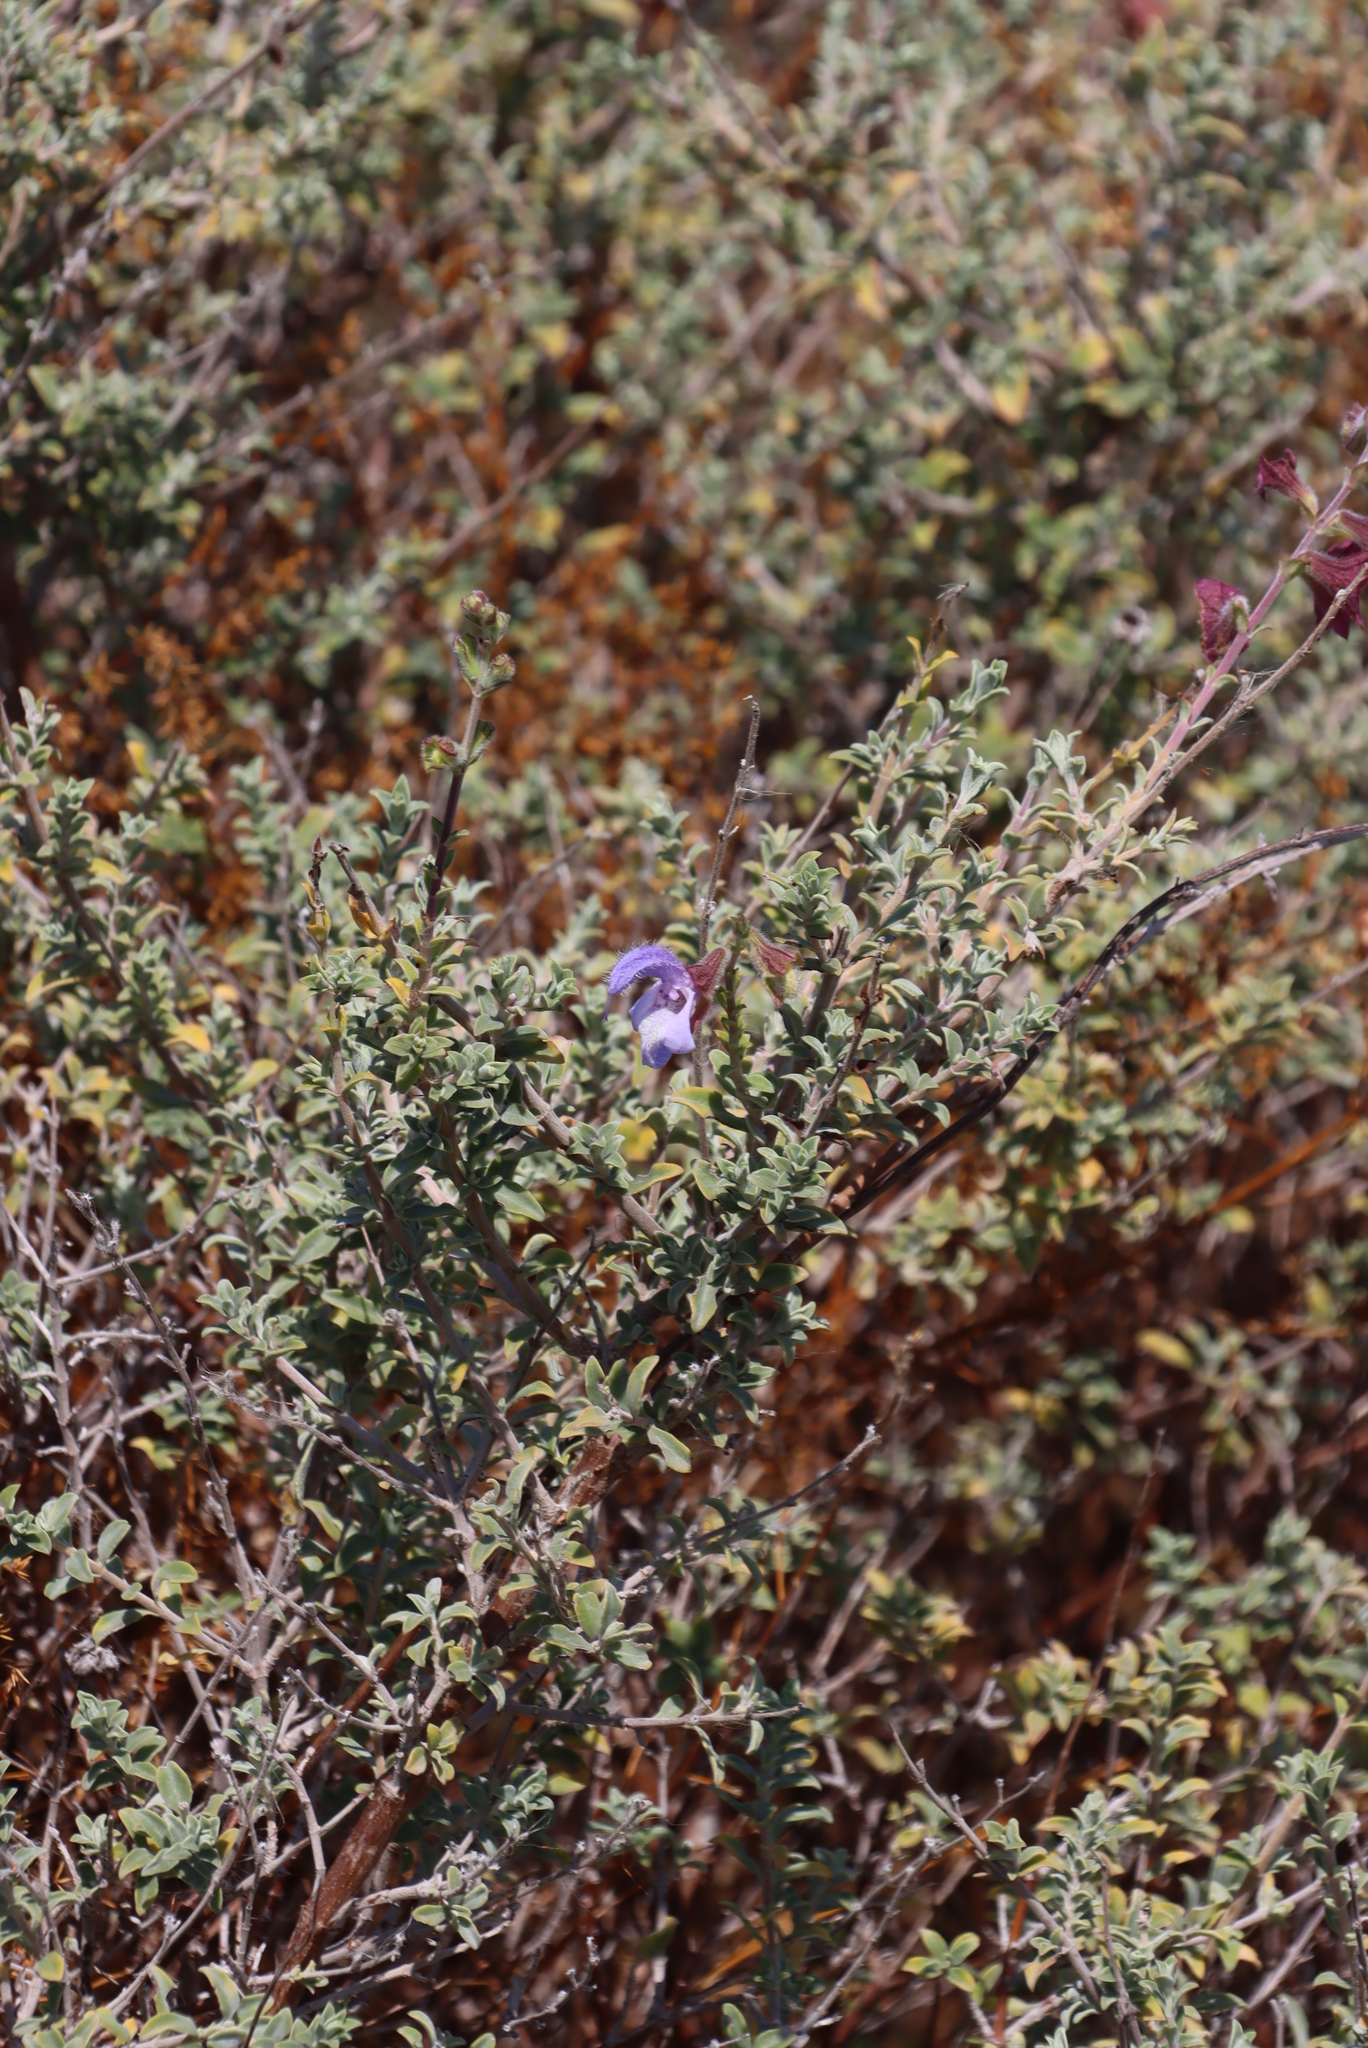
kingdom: Plantae
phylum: Tracheophyta
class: Magnoliopsida
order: Lamiales
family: Lamiaceae
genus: Salvia
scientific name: Salvia africana
